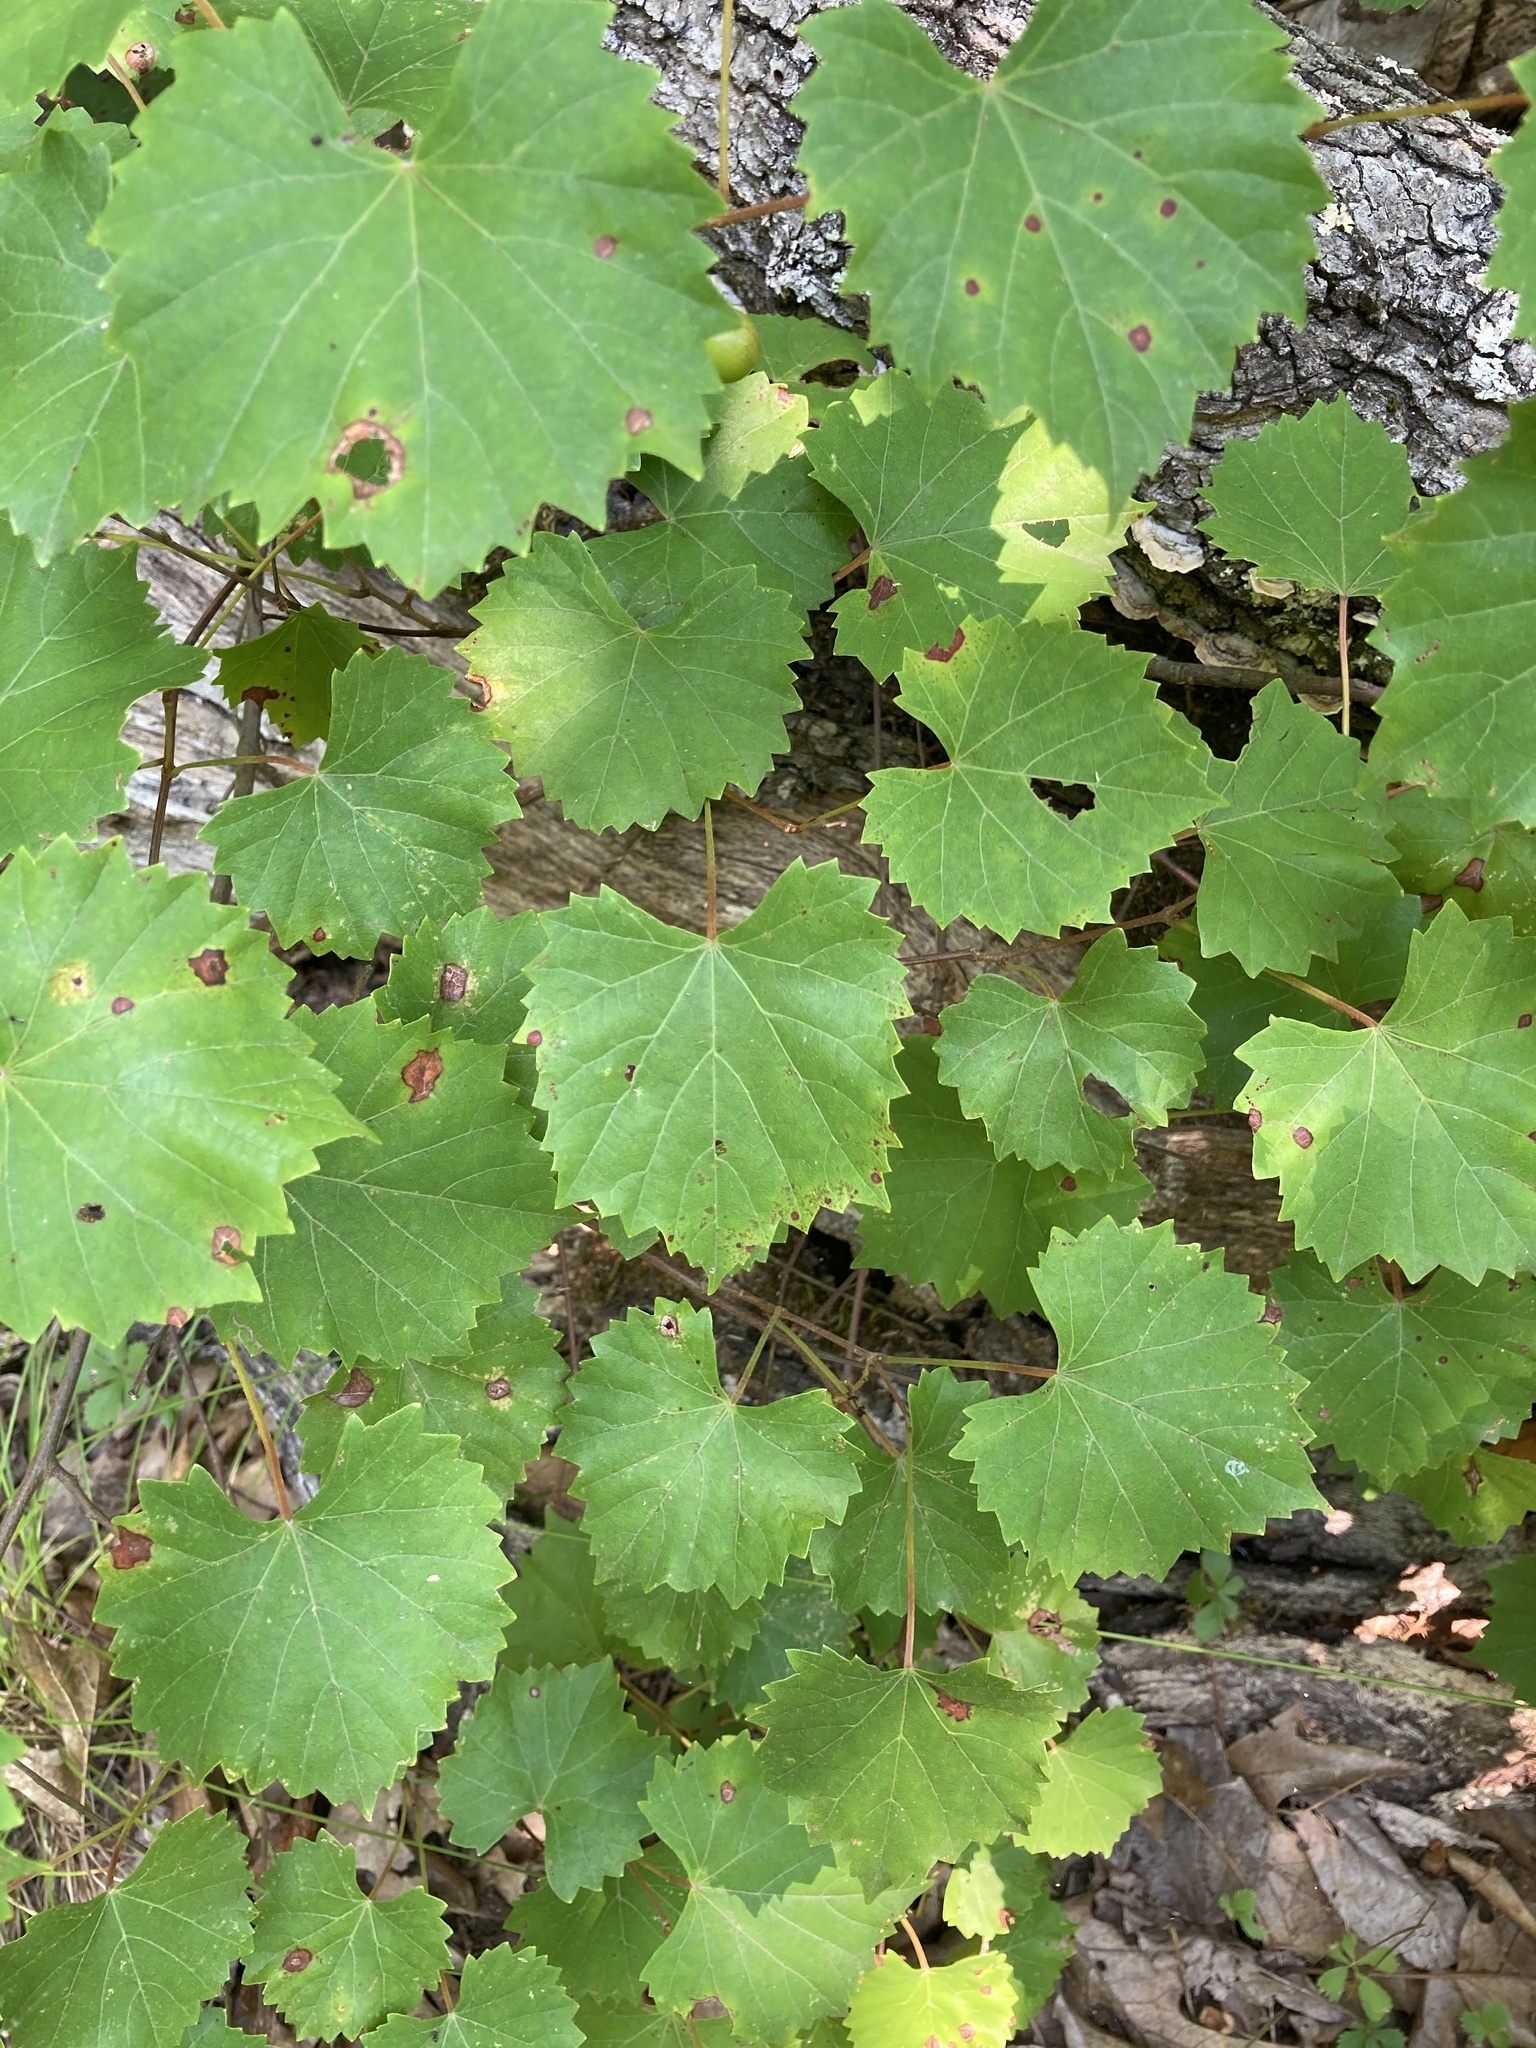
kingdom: Plantae
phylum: Tracheophyta
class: Magnoliopsida
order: Vitales
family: Vitaceae
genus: Vitis
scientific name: Vitis rotundifolia
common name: Muscadine grape
